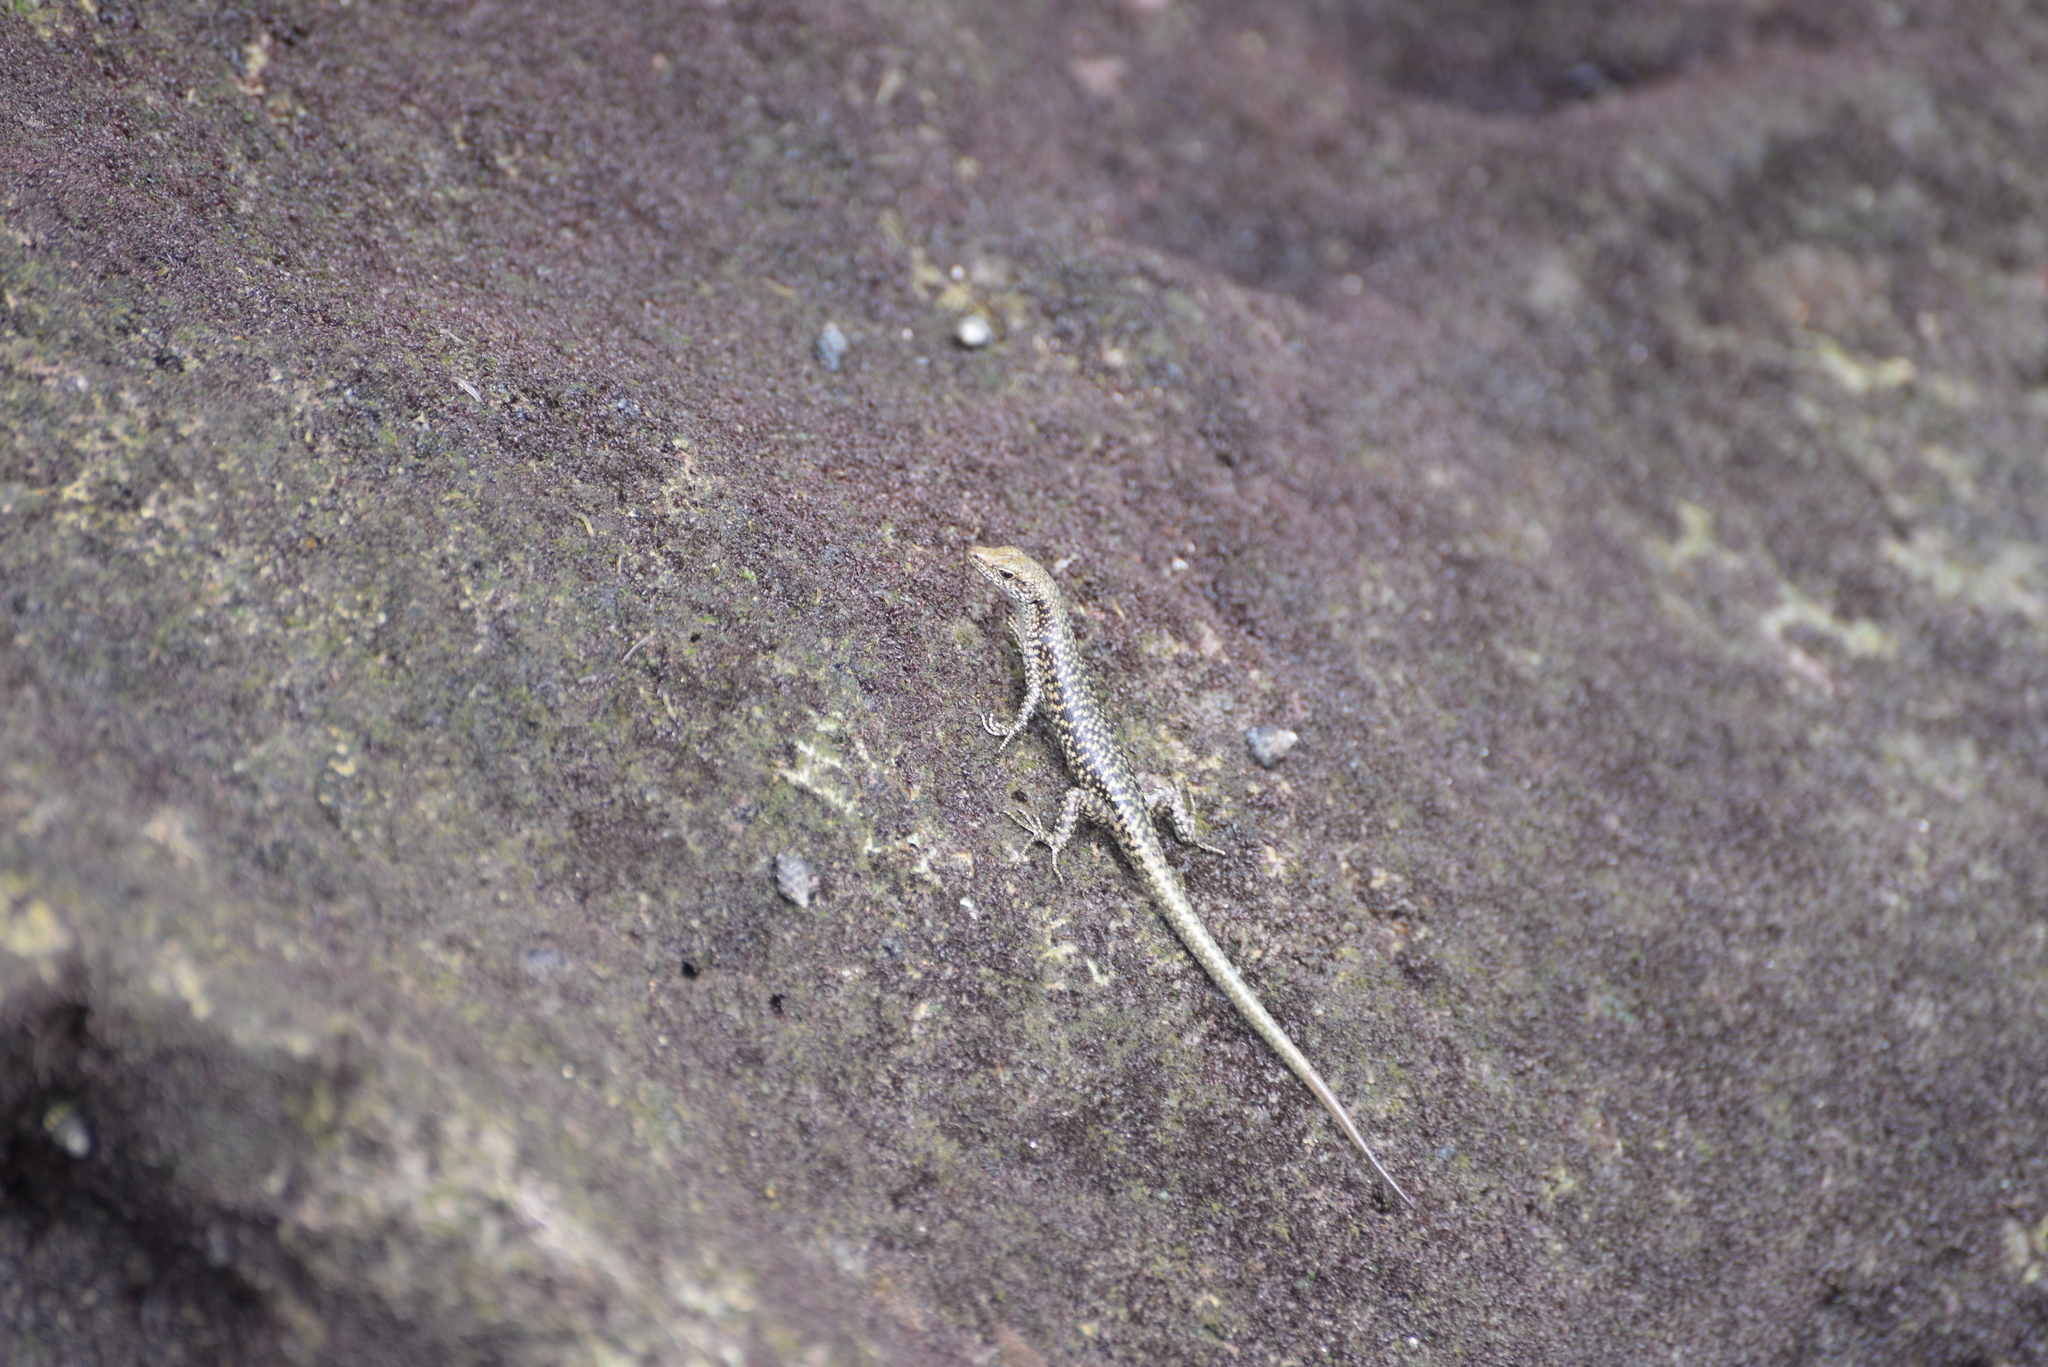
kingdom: Animalia
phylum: Chordata
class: Squamata
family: Scincidae
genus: Emoia
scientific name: Emoia atrocostata
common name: Littoral skink
